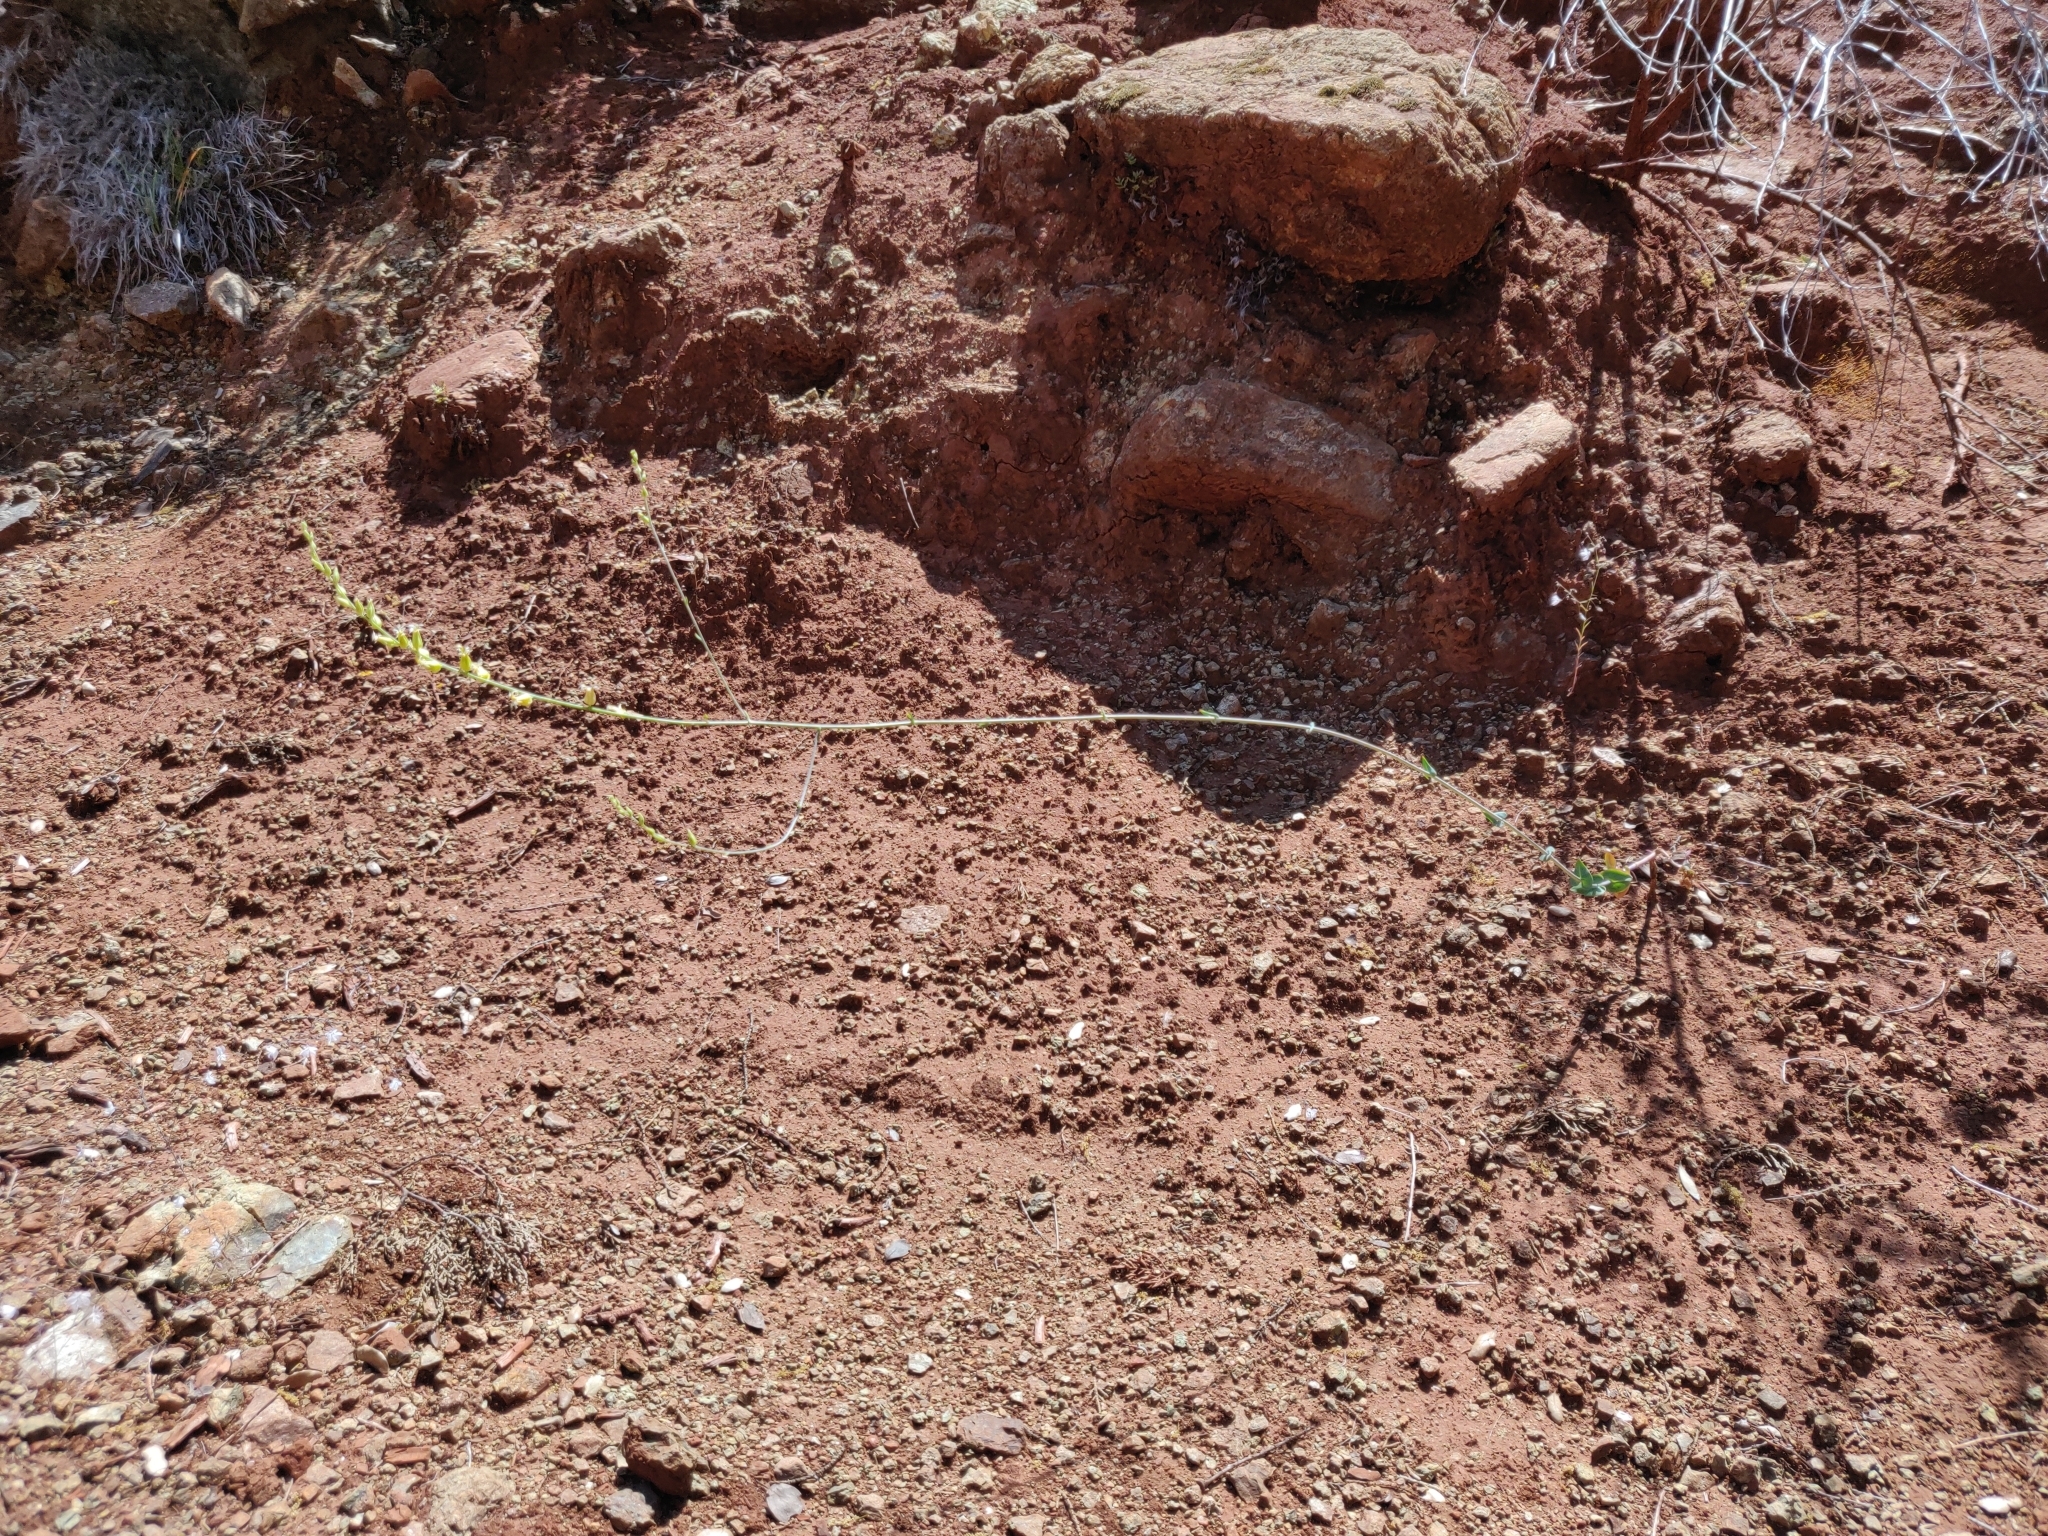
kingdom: Plantae
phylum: Tracheophyta
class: Magnoliopsida
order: Brassicales
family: Brassicaceae
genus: Streptanthus
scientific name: Streptanthus morrisonii
